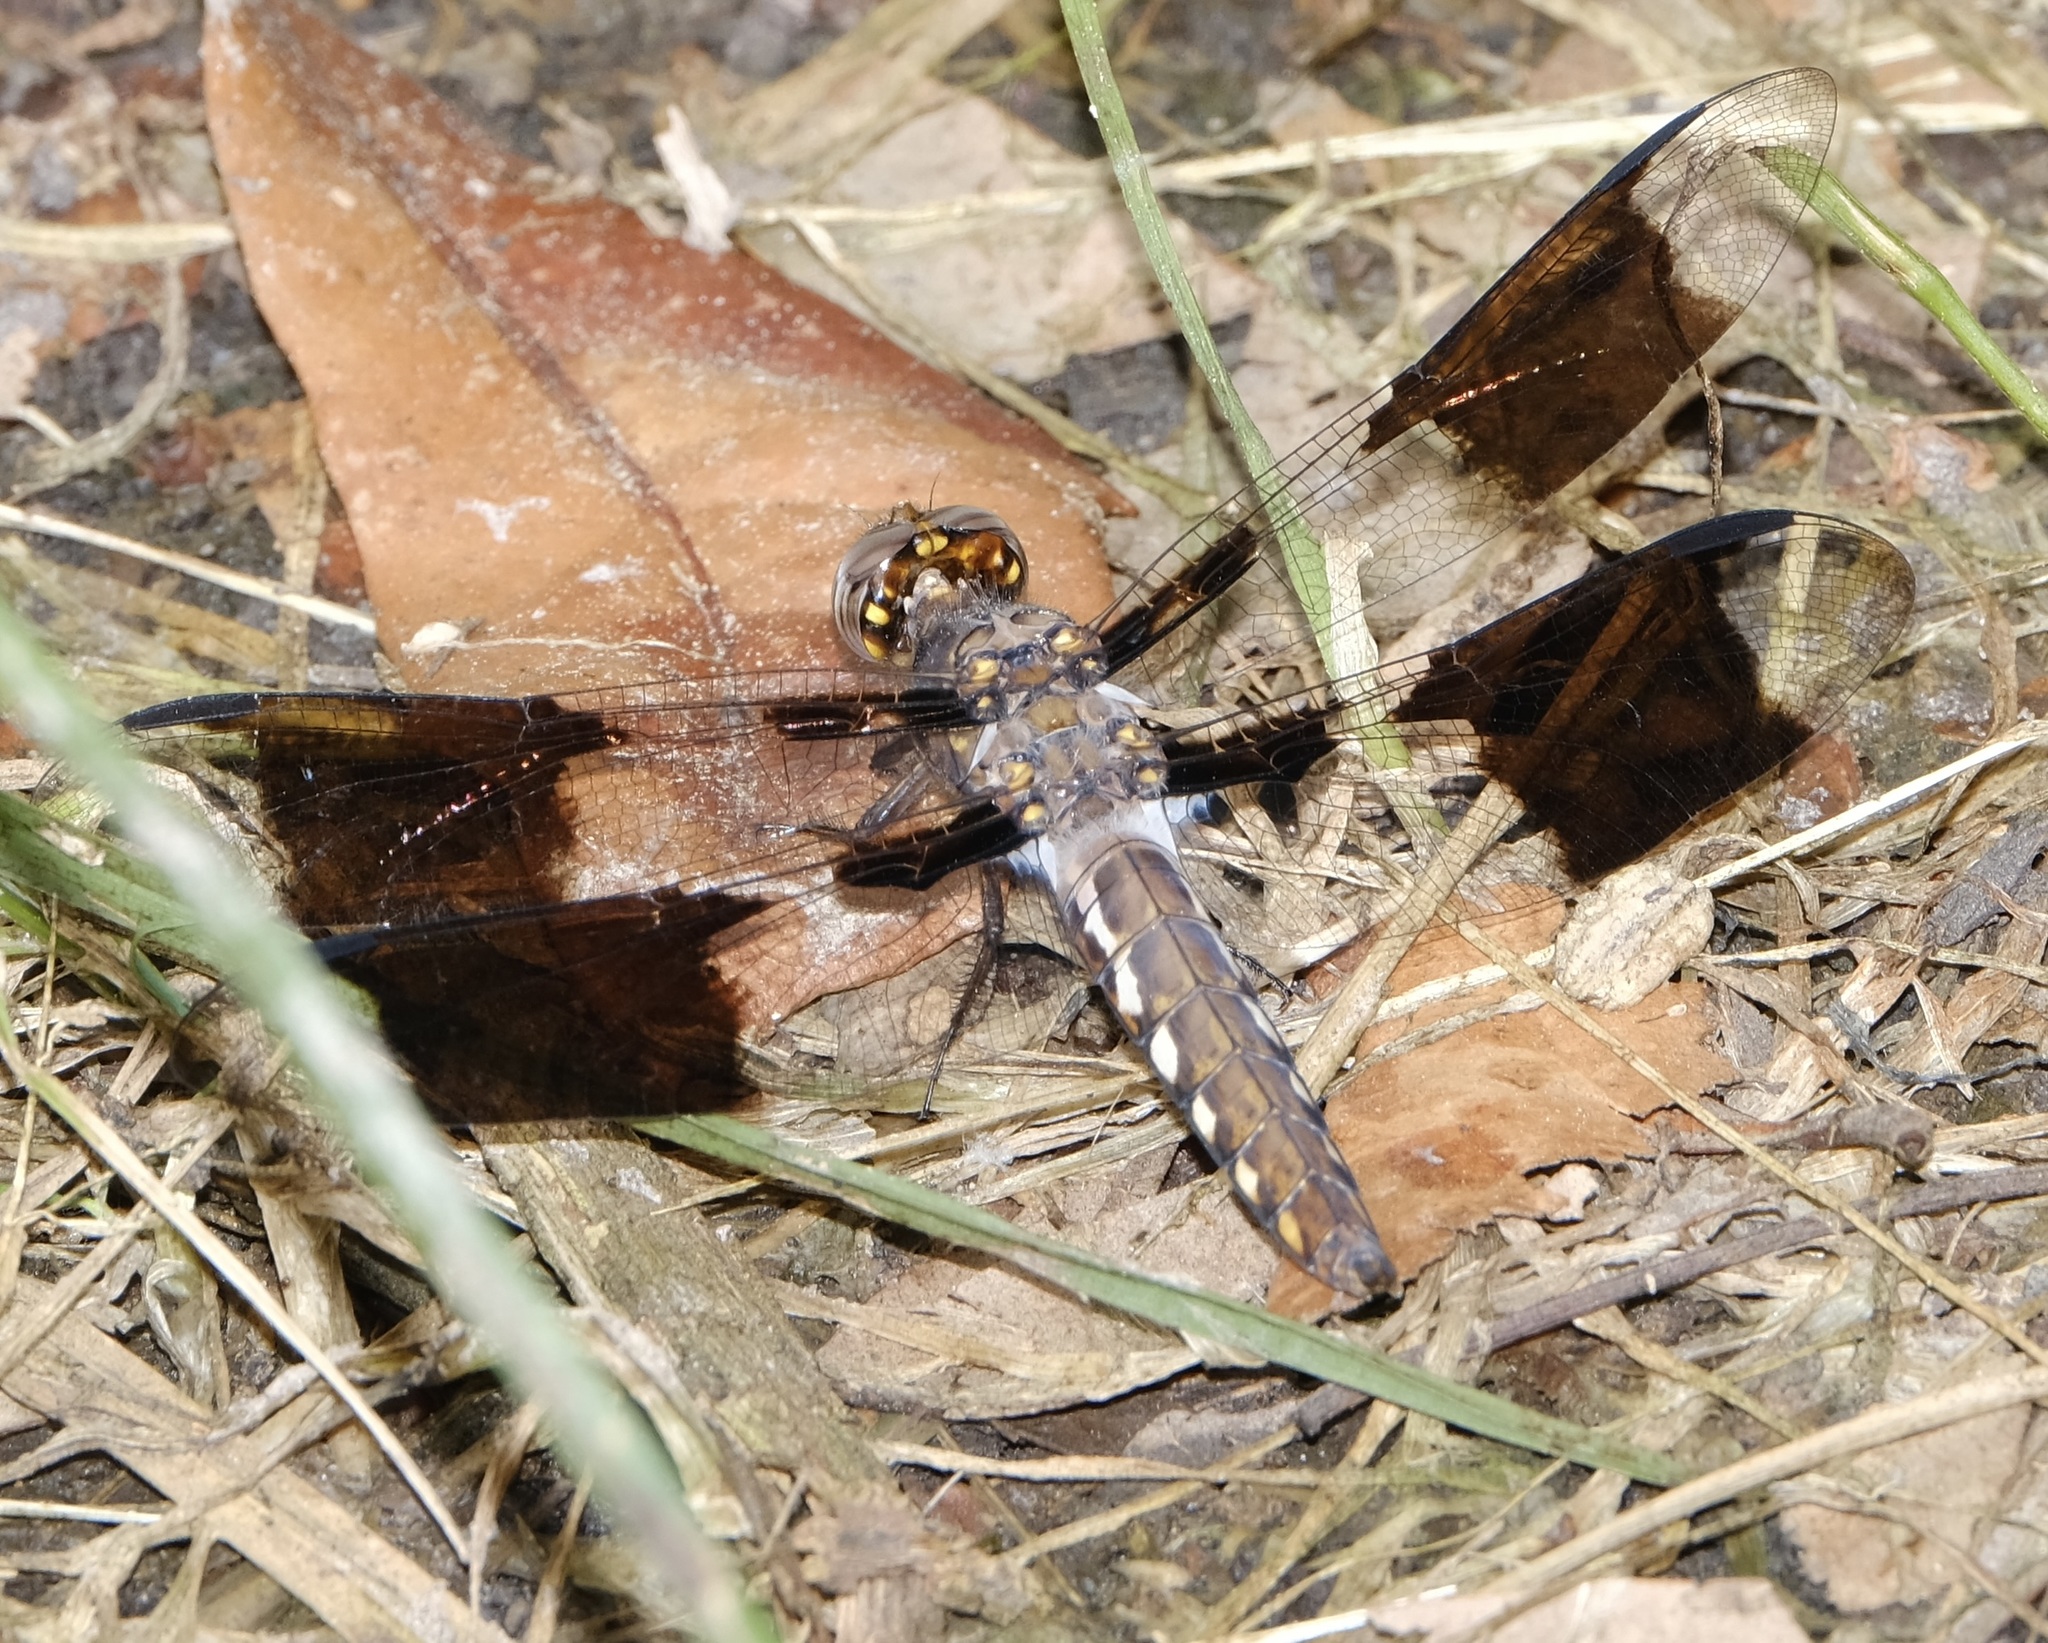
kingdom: Animalia
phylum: Arthropoda
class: Insecta
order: Odonata
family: Libellulidae
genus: Plathemis
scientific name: Plathemis lydia
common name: Common whitetail
